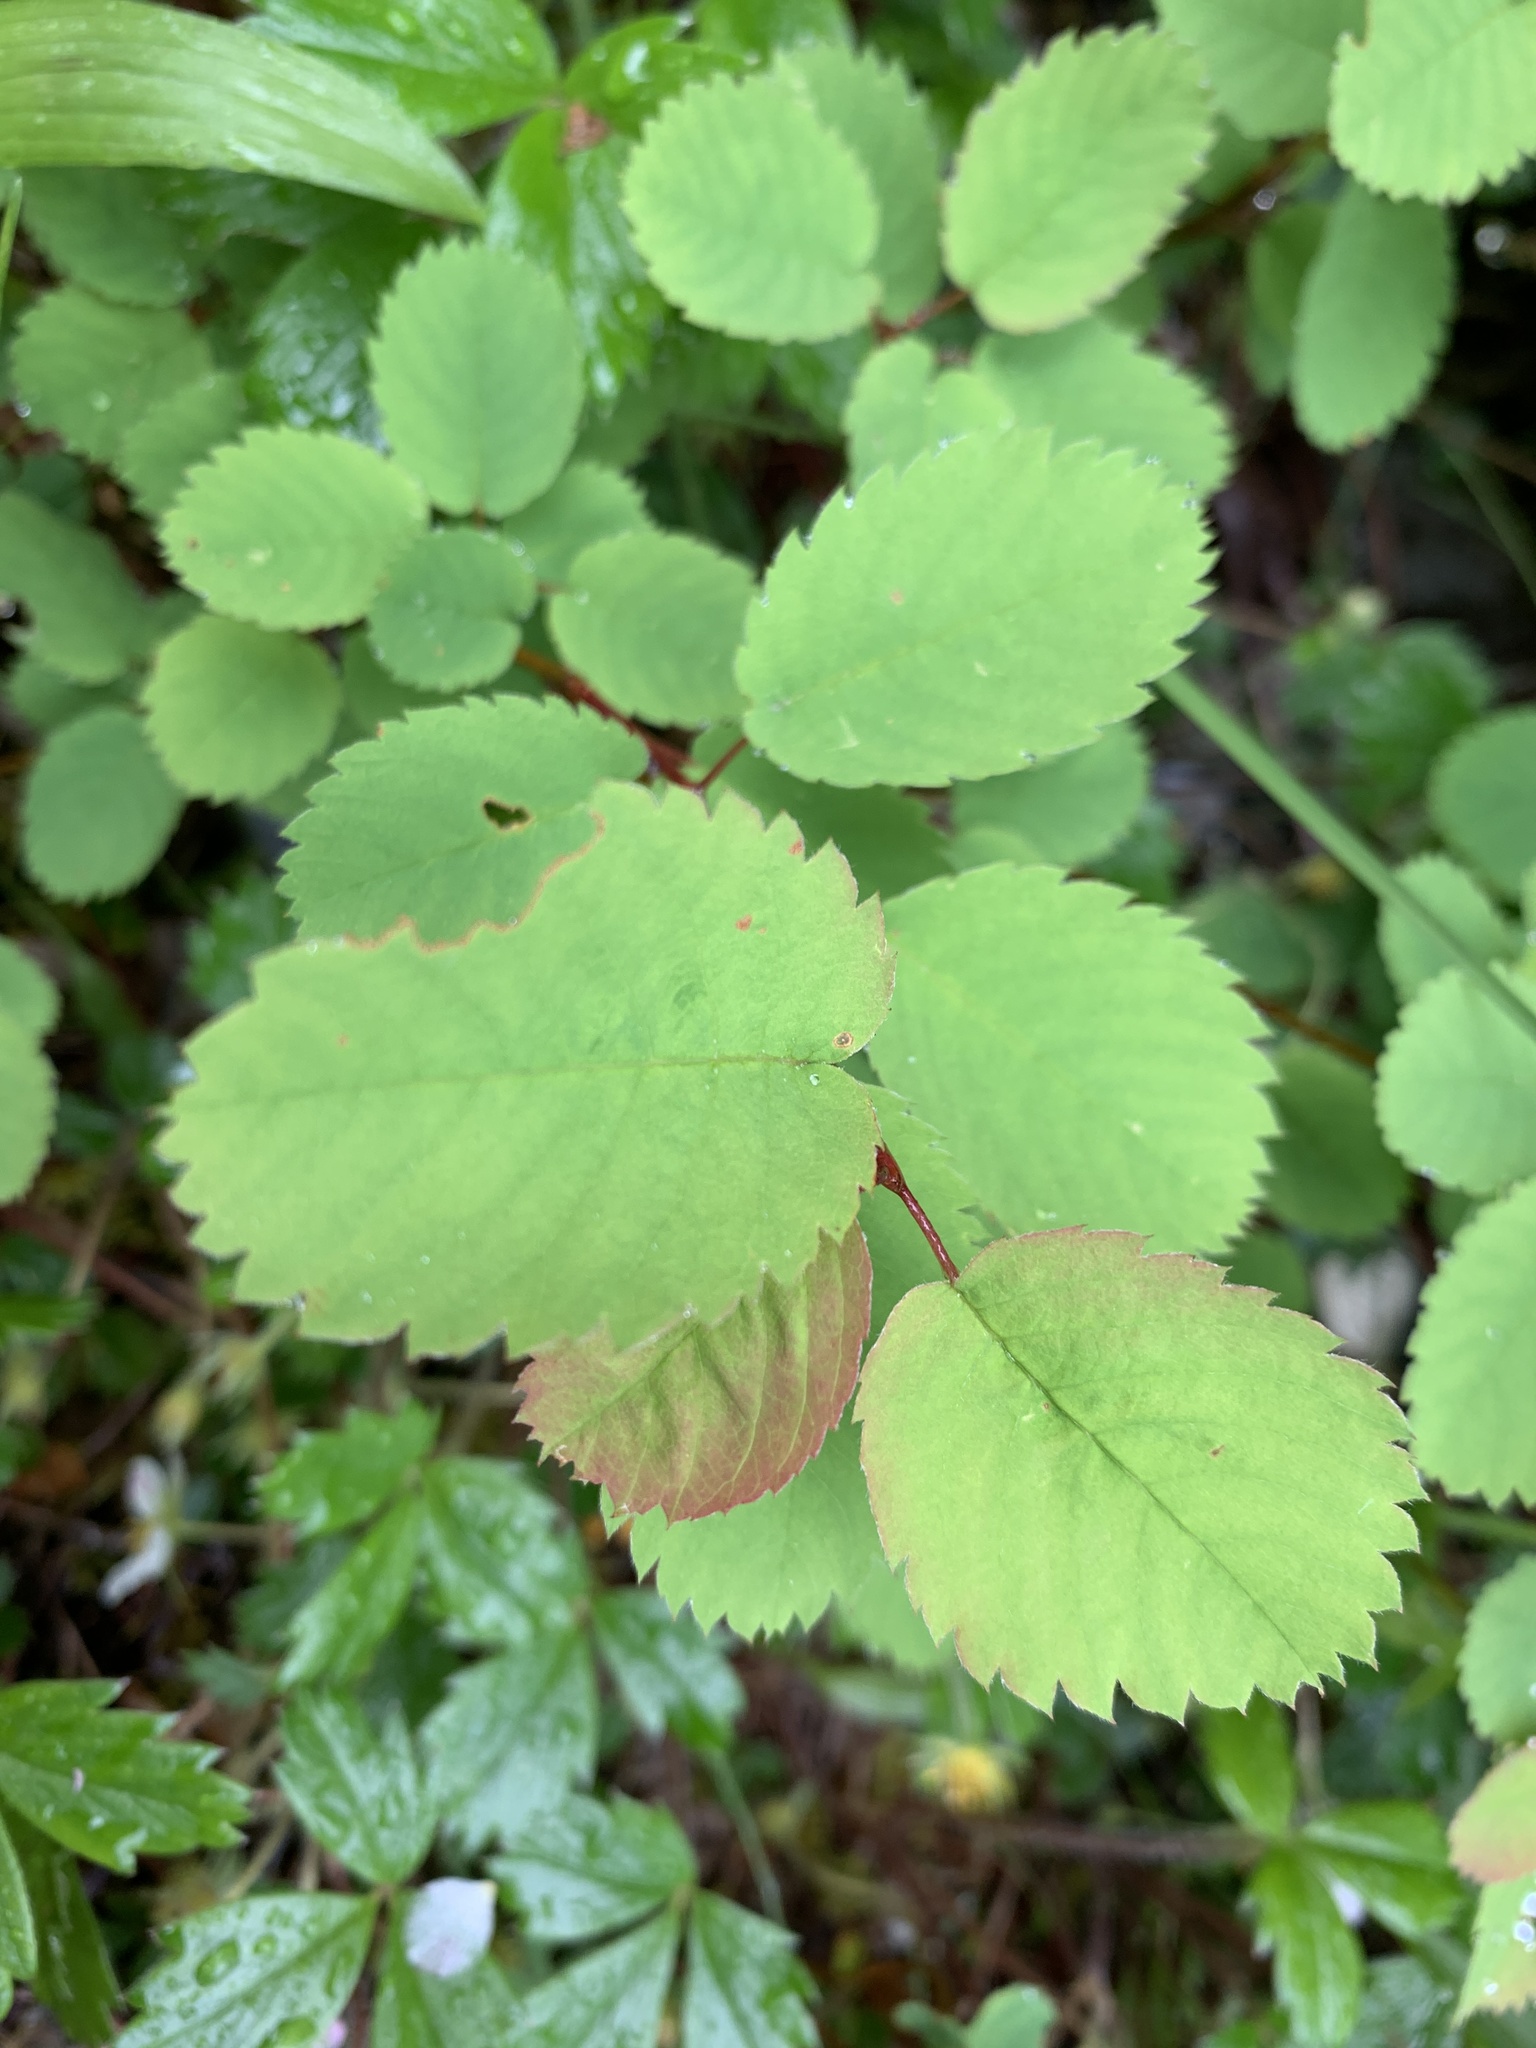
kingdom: Plantae
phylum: Tracheophyta
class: Magnoliopsida
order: Rosales
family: Rosaceae
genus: Amelanchier
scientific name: Amelanchier alnifolia
